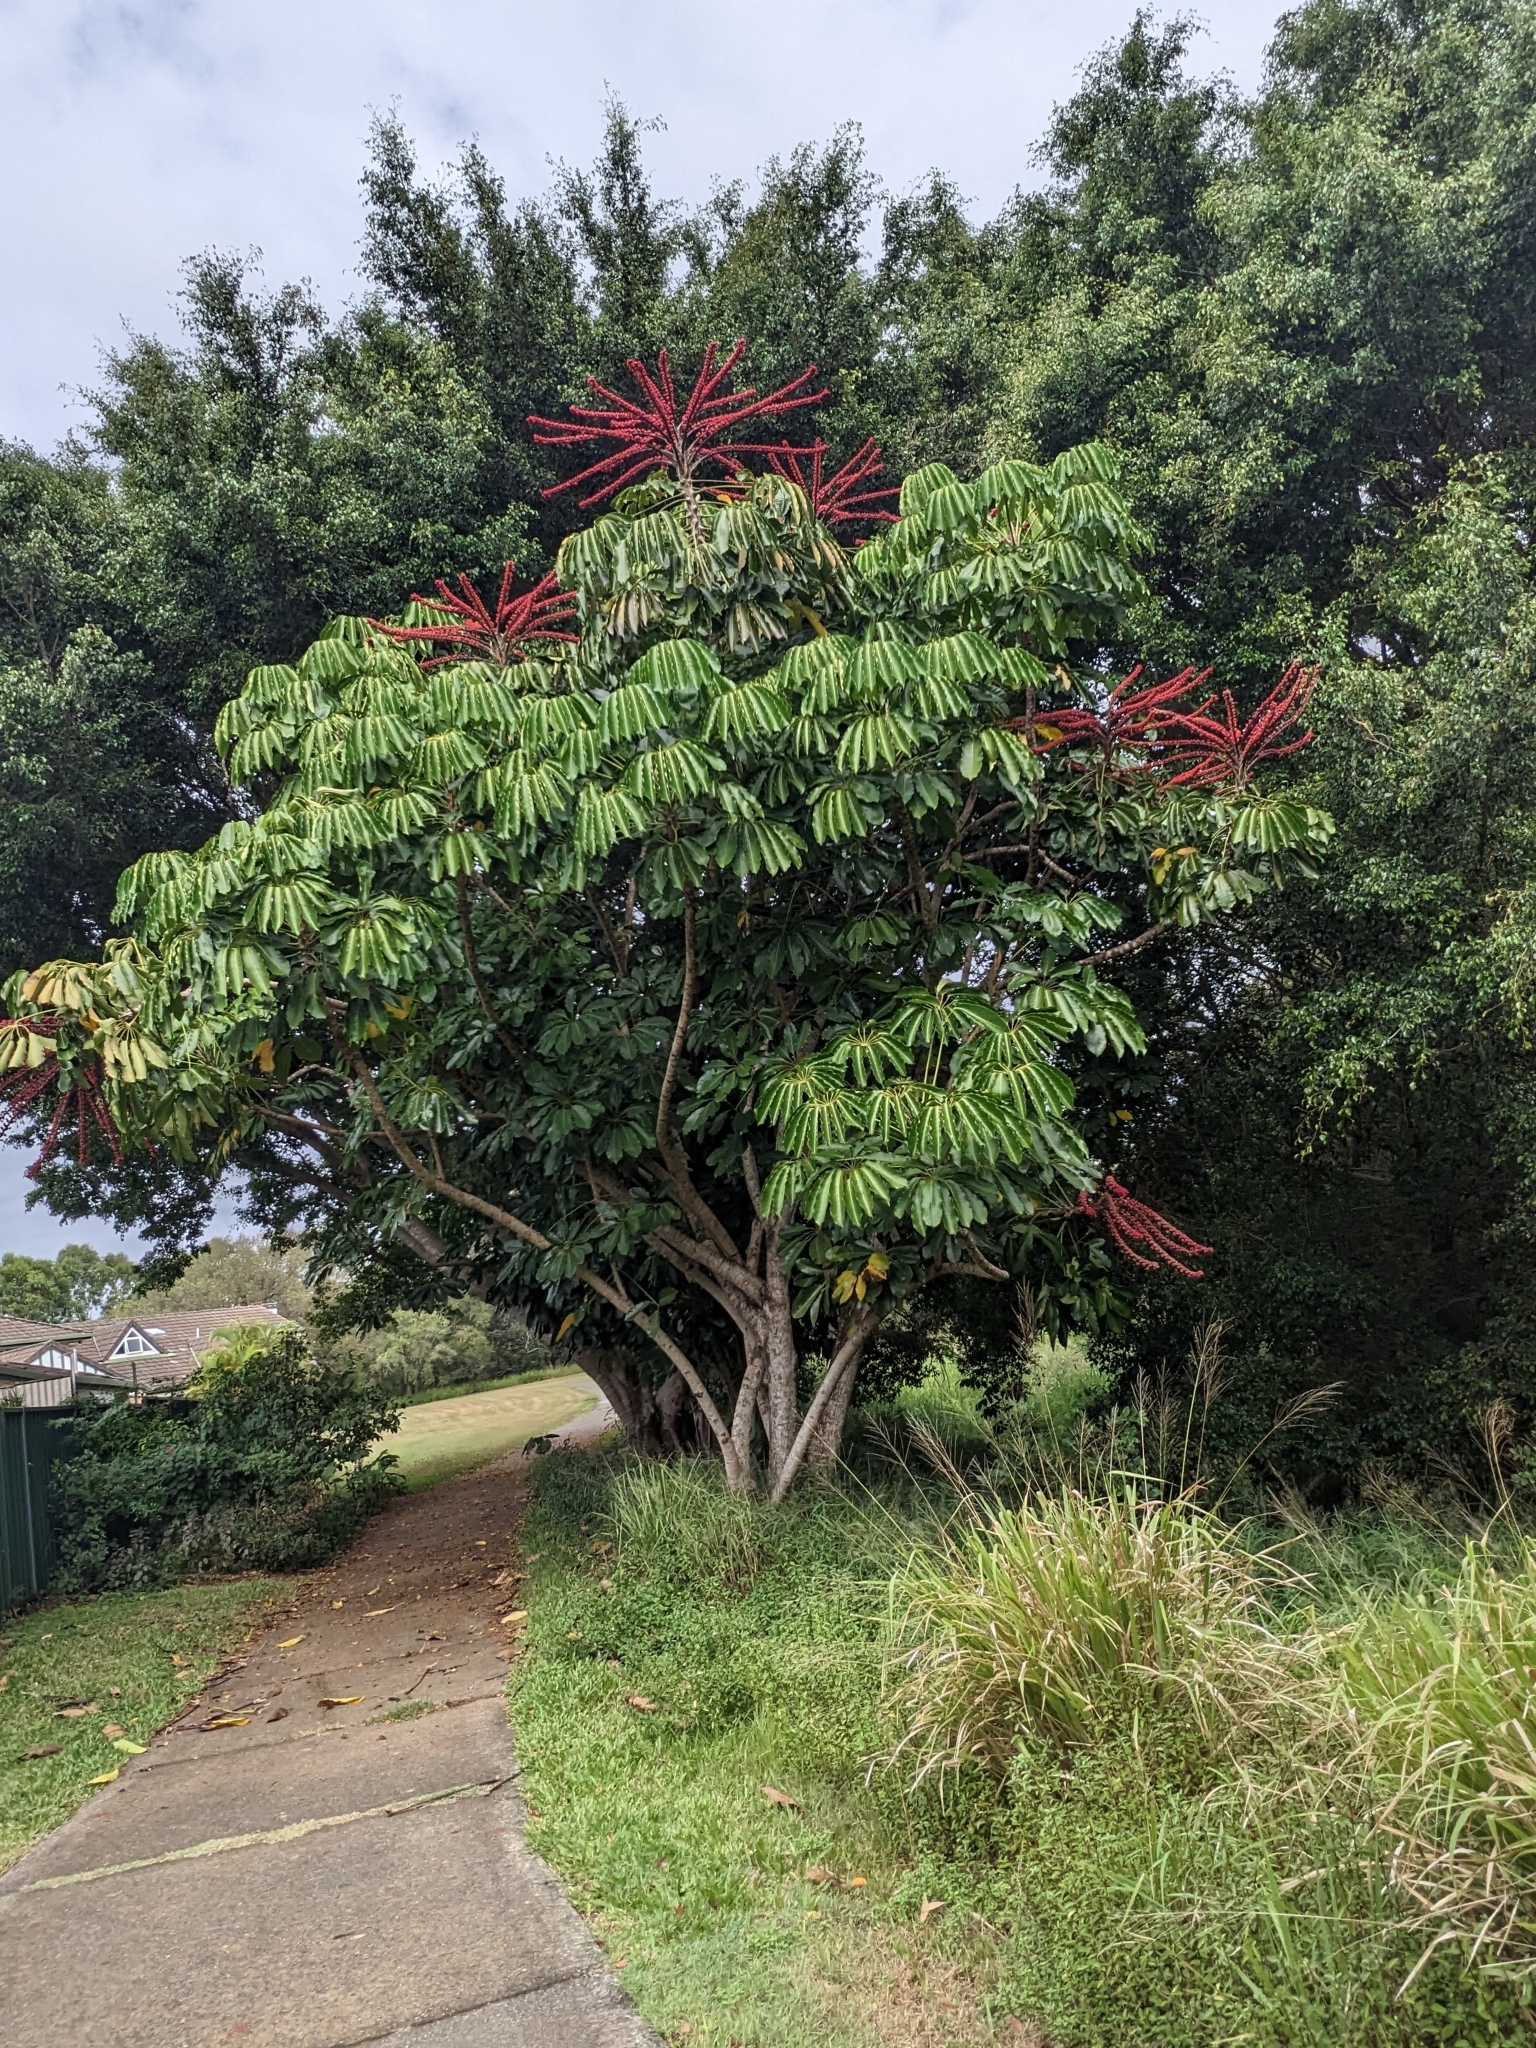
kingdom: Plantae
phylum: Tracheophyta
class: Magnoliopsida
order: Apiales
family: Araliaceae
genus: Heptapleurum
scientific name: Heptapleurum actinophyllum
